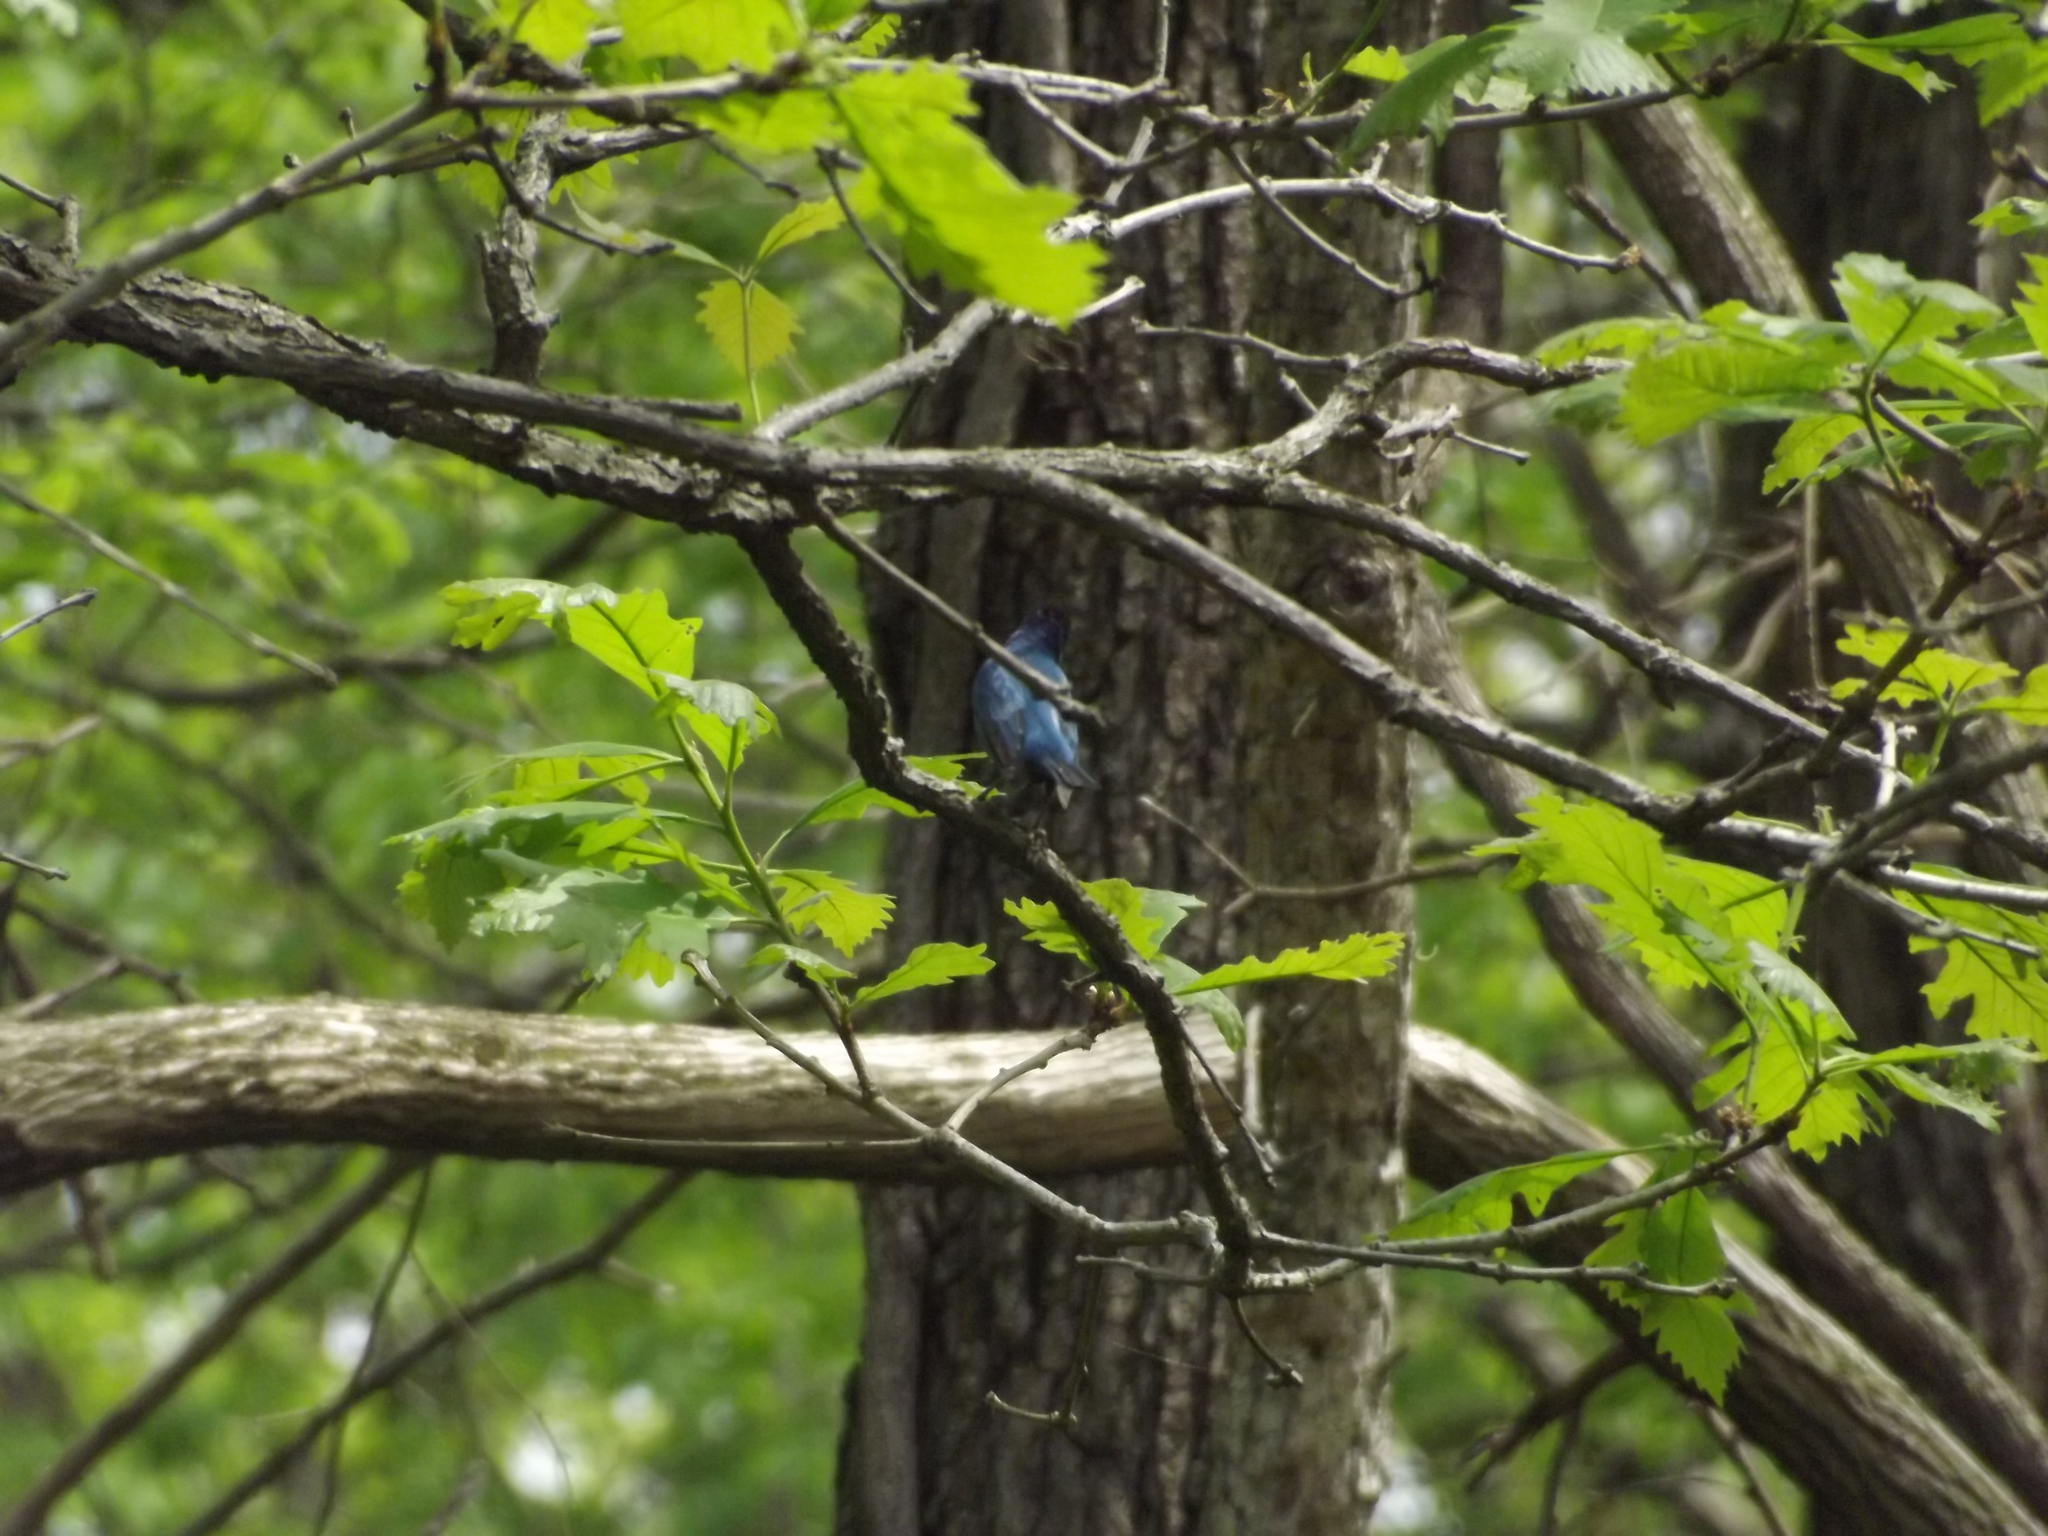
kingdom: Animalia
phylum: Chordata
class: Aves
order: Passeriformes
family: Cardinalidae
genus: Passerina
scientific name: Passerina cyanea
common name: Indigo bunting
